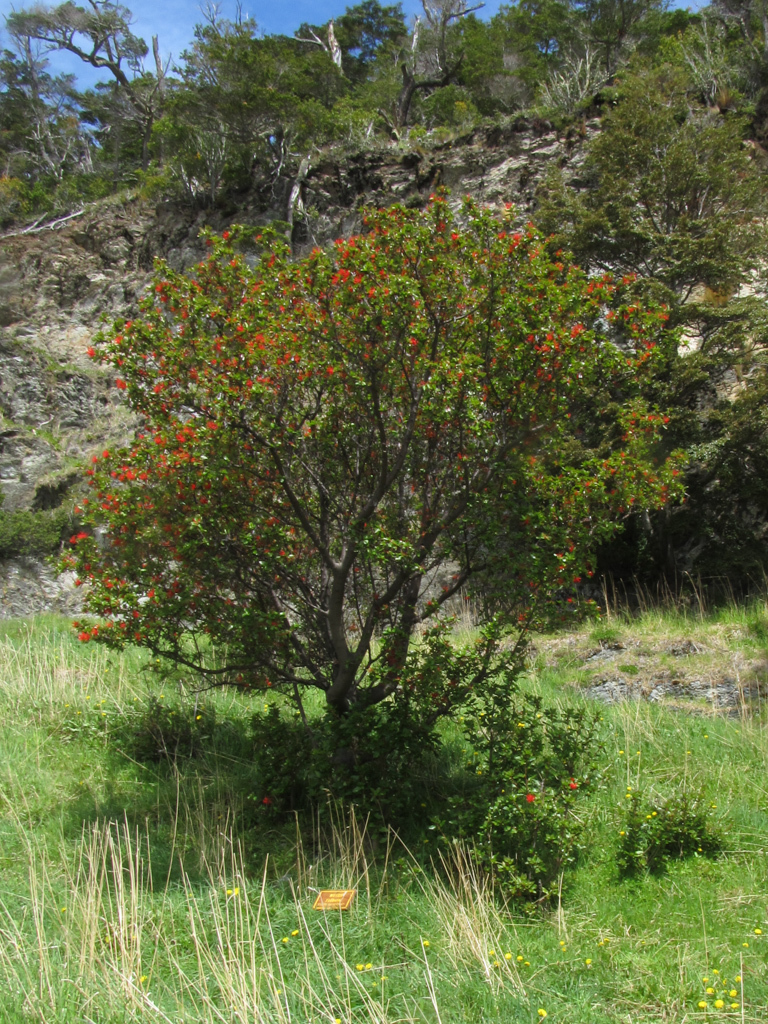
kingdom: Plantae
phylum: Tracheophyta
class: Magnoliopsida
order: Proteales
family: Proteaceae
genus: Embothrium
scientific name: Embothrium coccineum
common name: Chilean firebush
